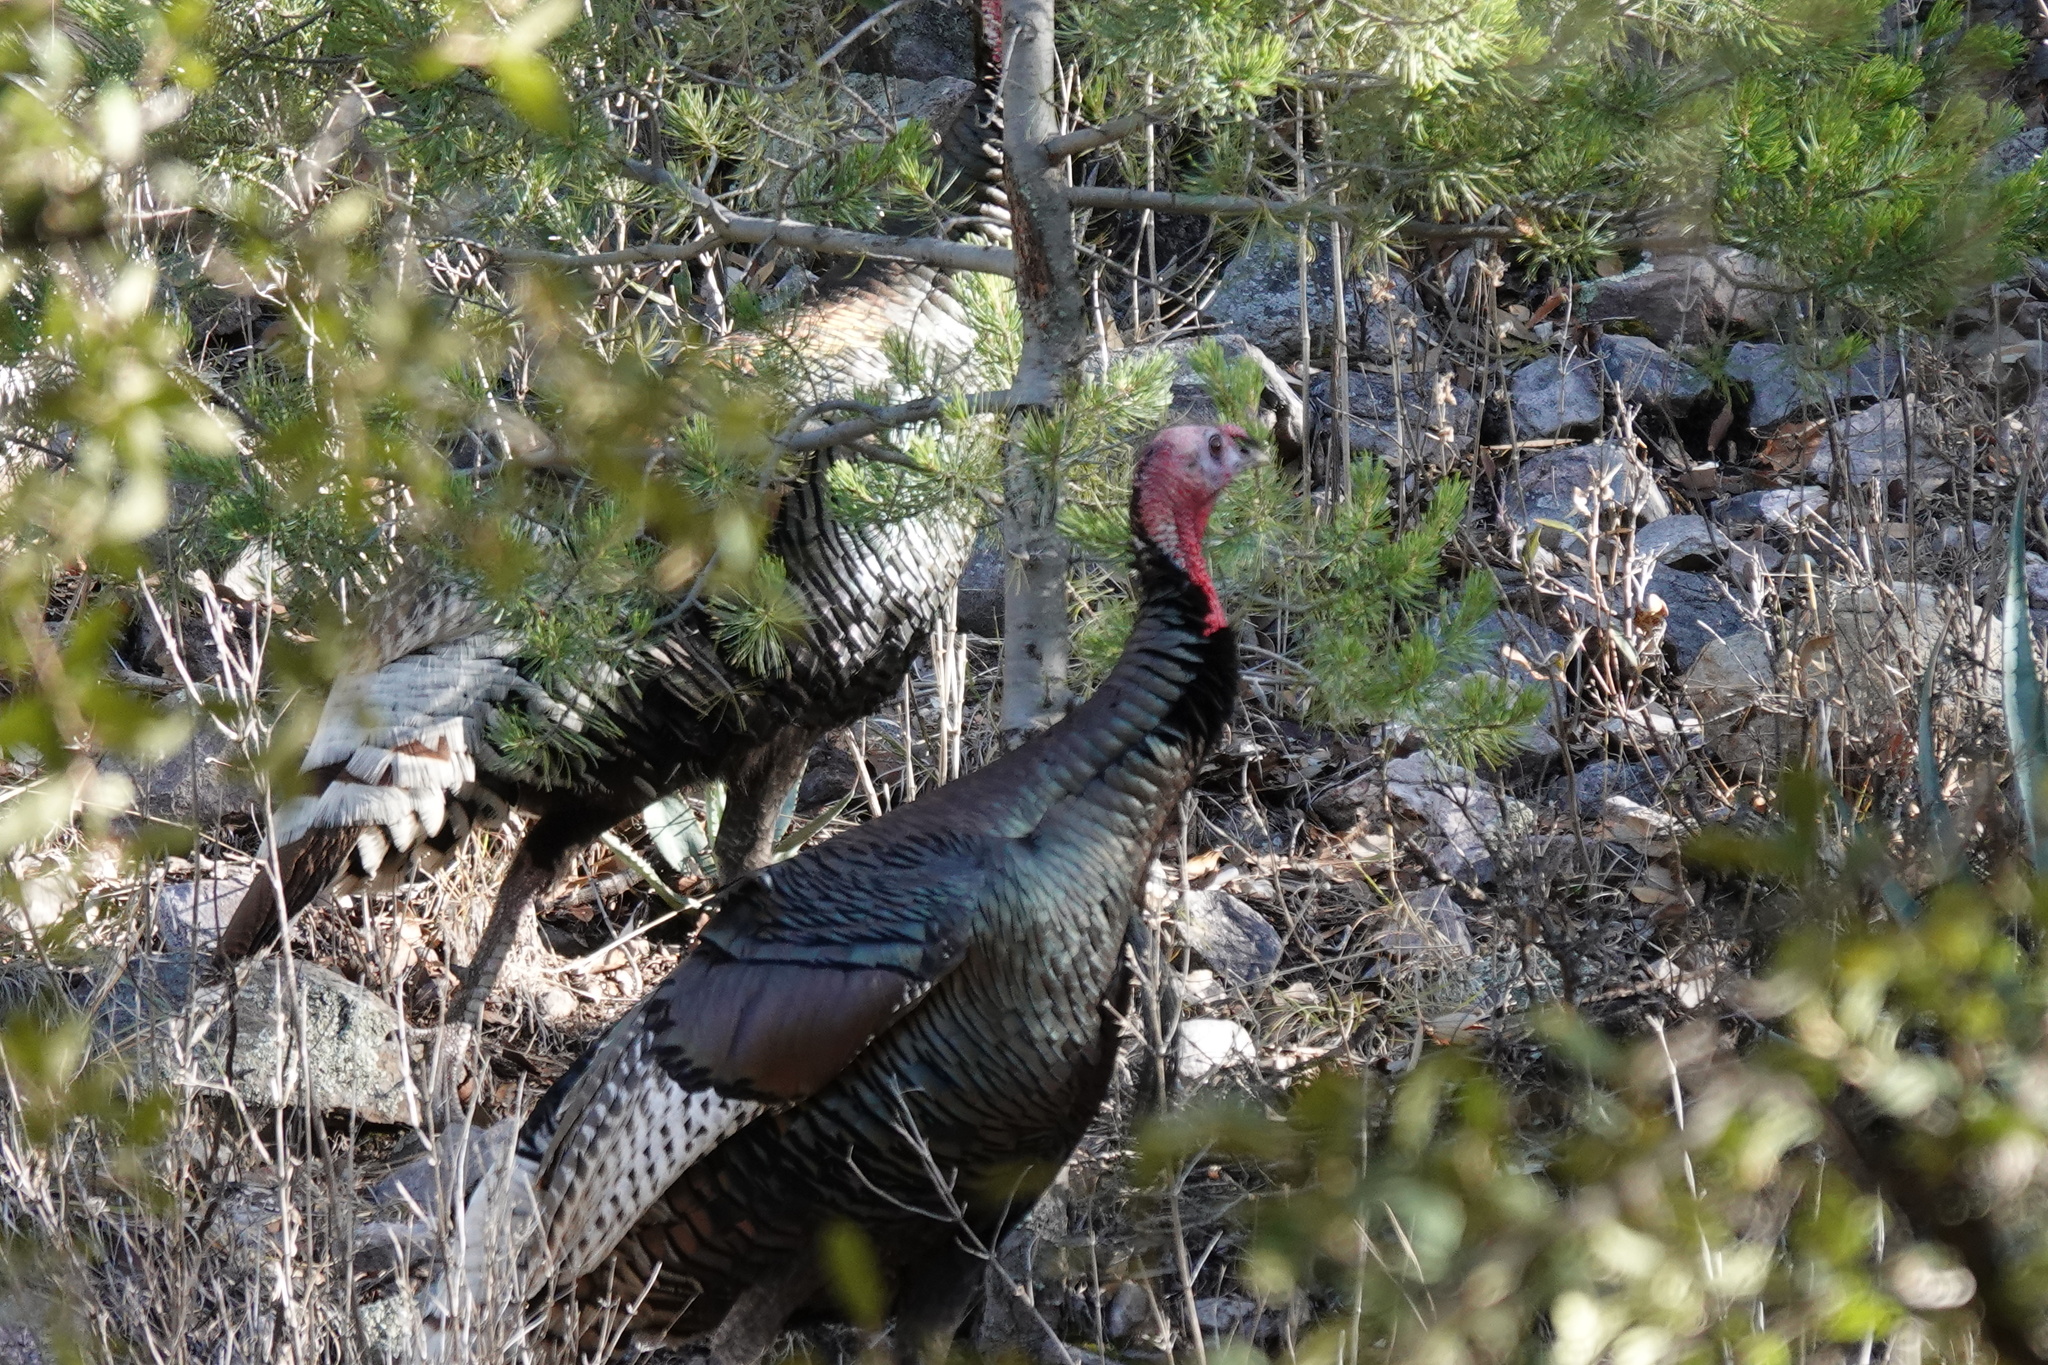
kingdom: Animalia
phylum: Chordata
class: Aves
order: Galliformes
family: Phasianidae
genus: Meleagris
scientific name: Meleagris gallopavo
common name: Wild turkey
